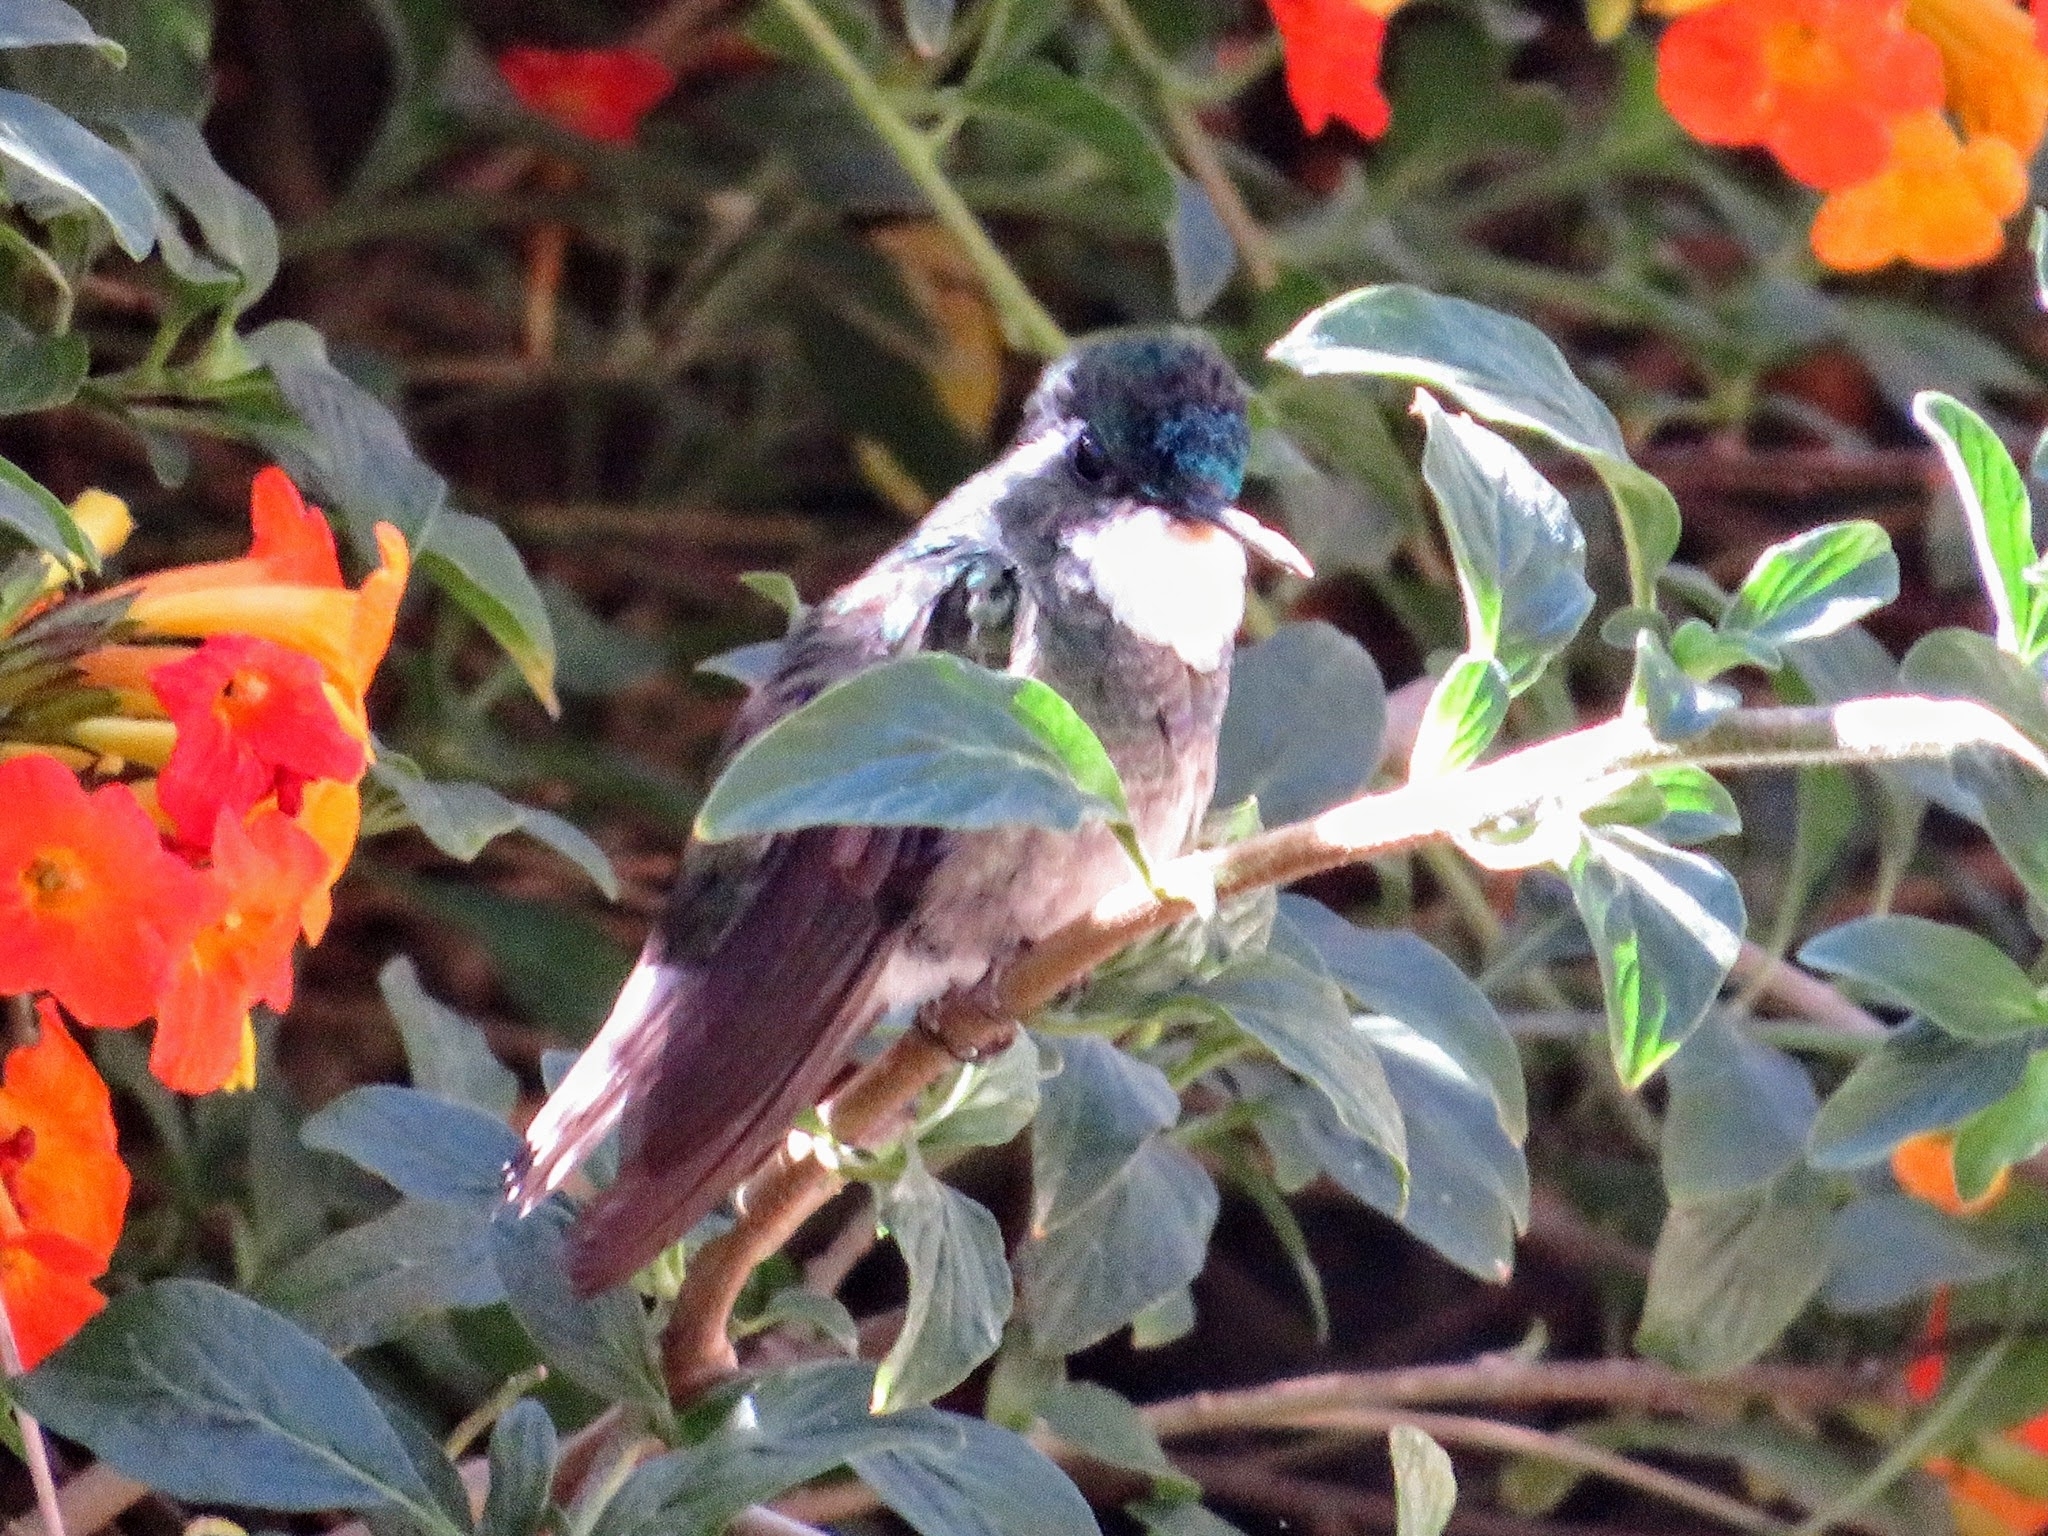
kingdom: Animalia
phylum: Chordata
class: Aves
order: Apodiformes
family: Trochilidae
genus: Lampornis
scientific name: Lampornis castaneoventris
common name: White-throated mountain-gem
